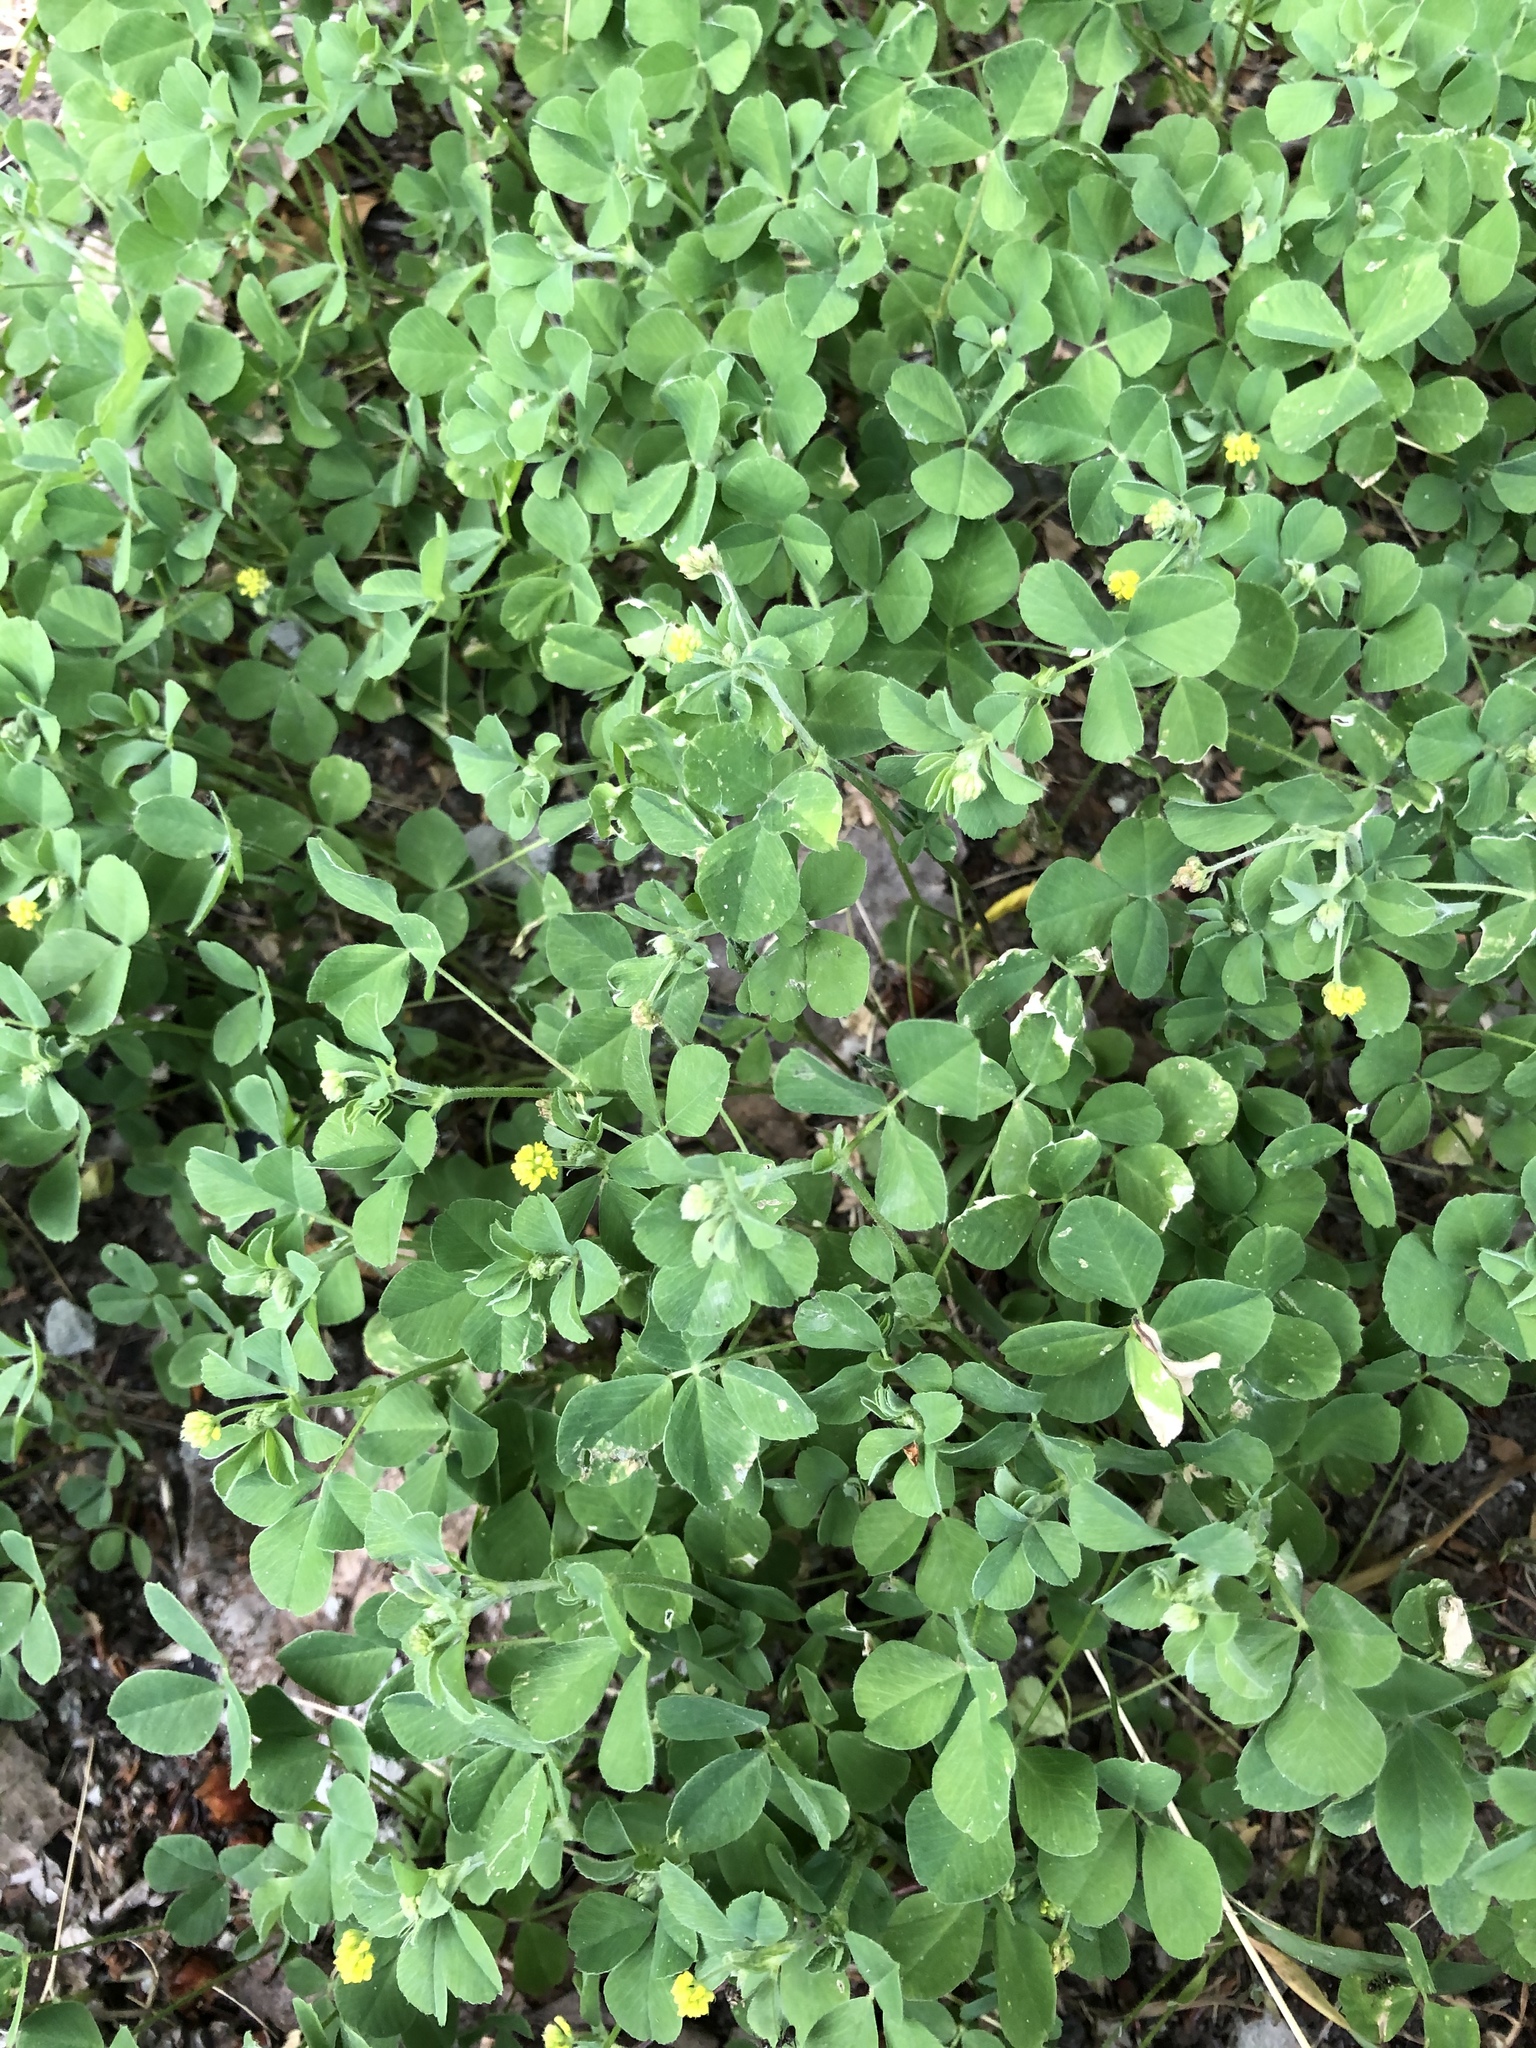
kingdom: Plantae
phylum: Tracheophyta
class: Magnoliopsida
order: Fabales
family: Fabaceae
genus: Medicago
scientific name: Medicago lupulina
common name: Black medick
